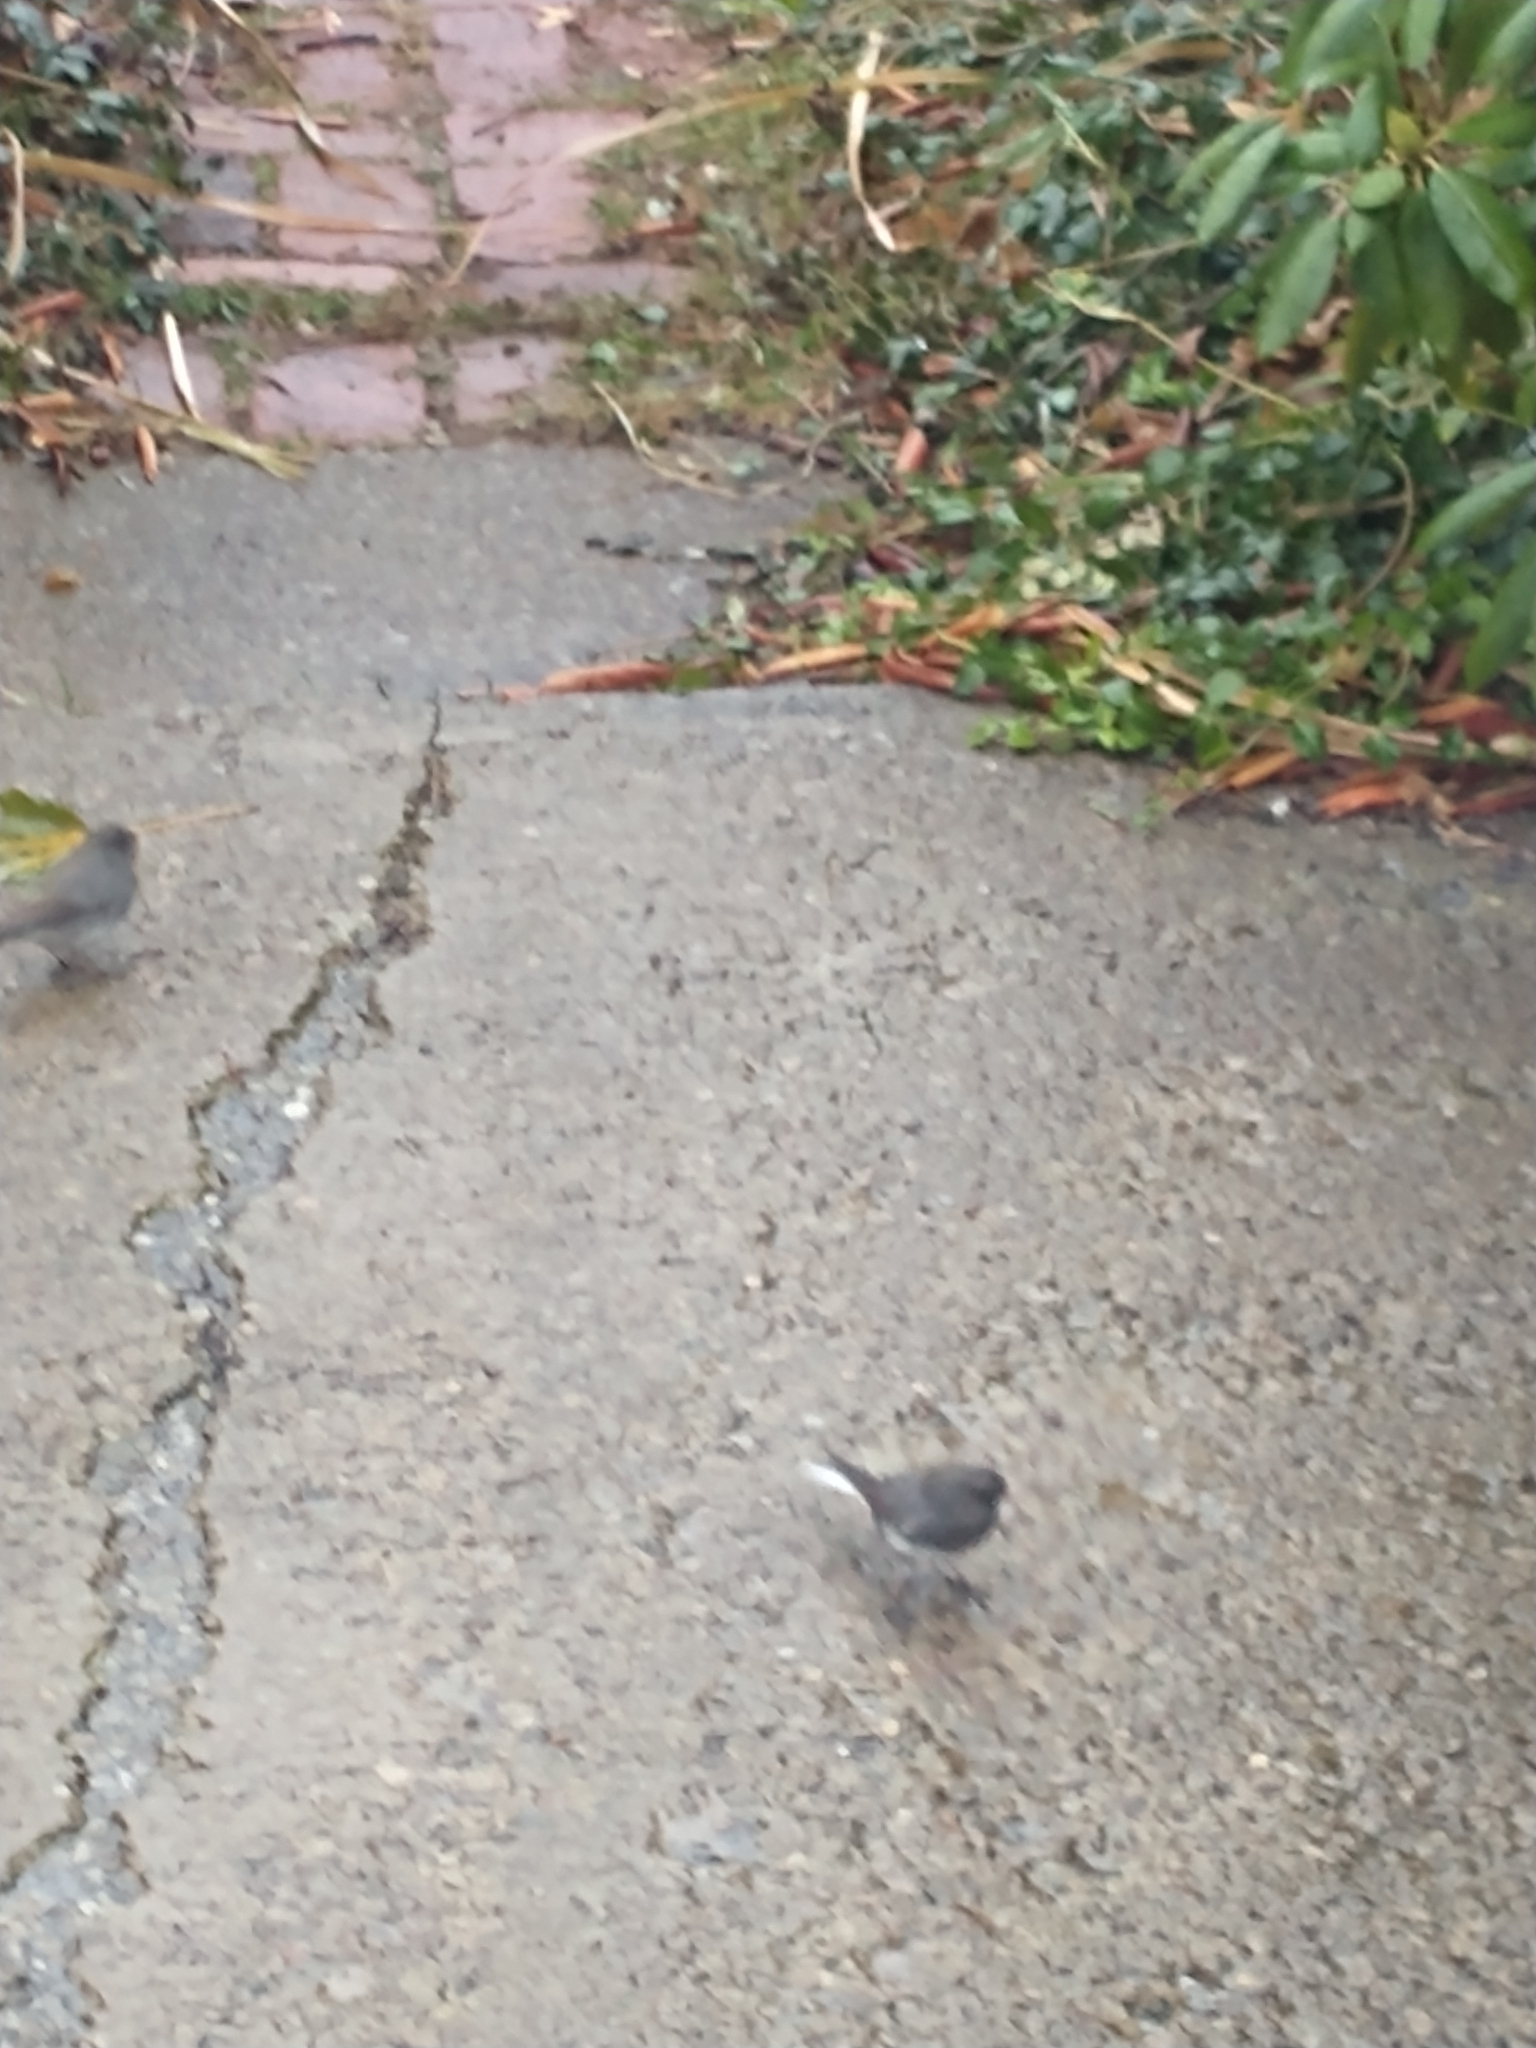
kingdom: Animalia
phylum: Chordata
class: Aves
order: Passeriformes
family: Passerellidae
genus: Junco
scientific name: Junco hyemalis
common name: Dark-eyed junco
